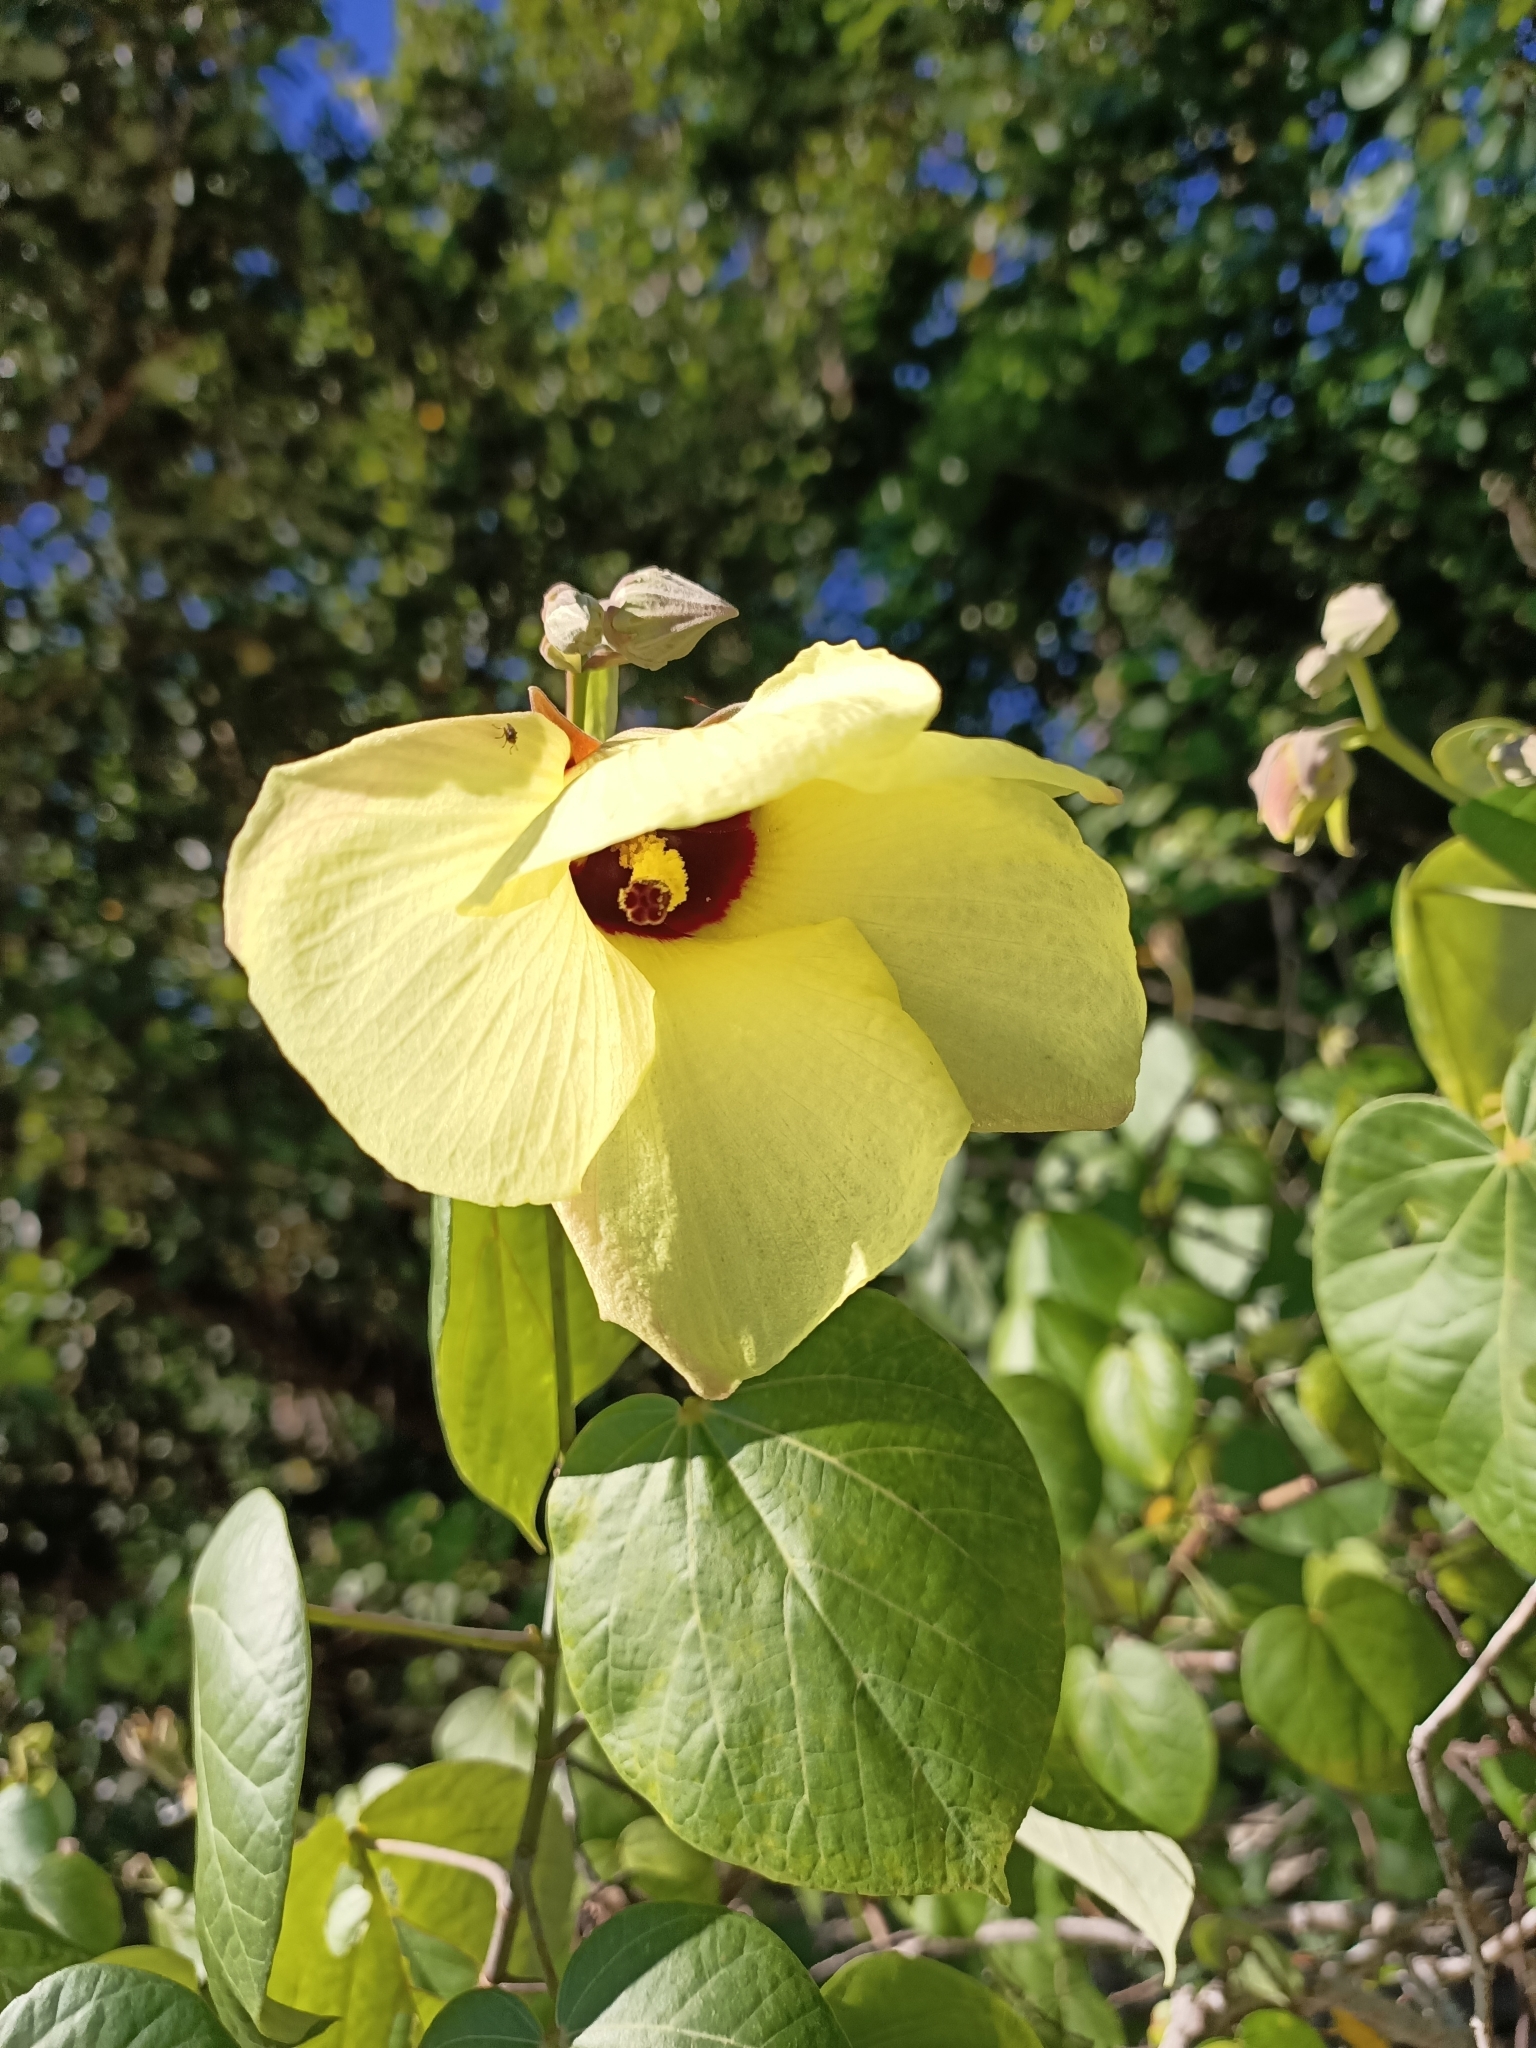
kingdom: Plantae
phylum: Tracheophyta
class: Magnoliopsida
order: Malvales
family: Malvaceae
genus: Talipariti
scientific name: Talipariti tiliaceum
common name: Sea hibiscus
